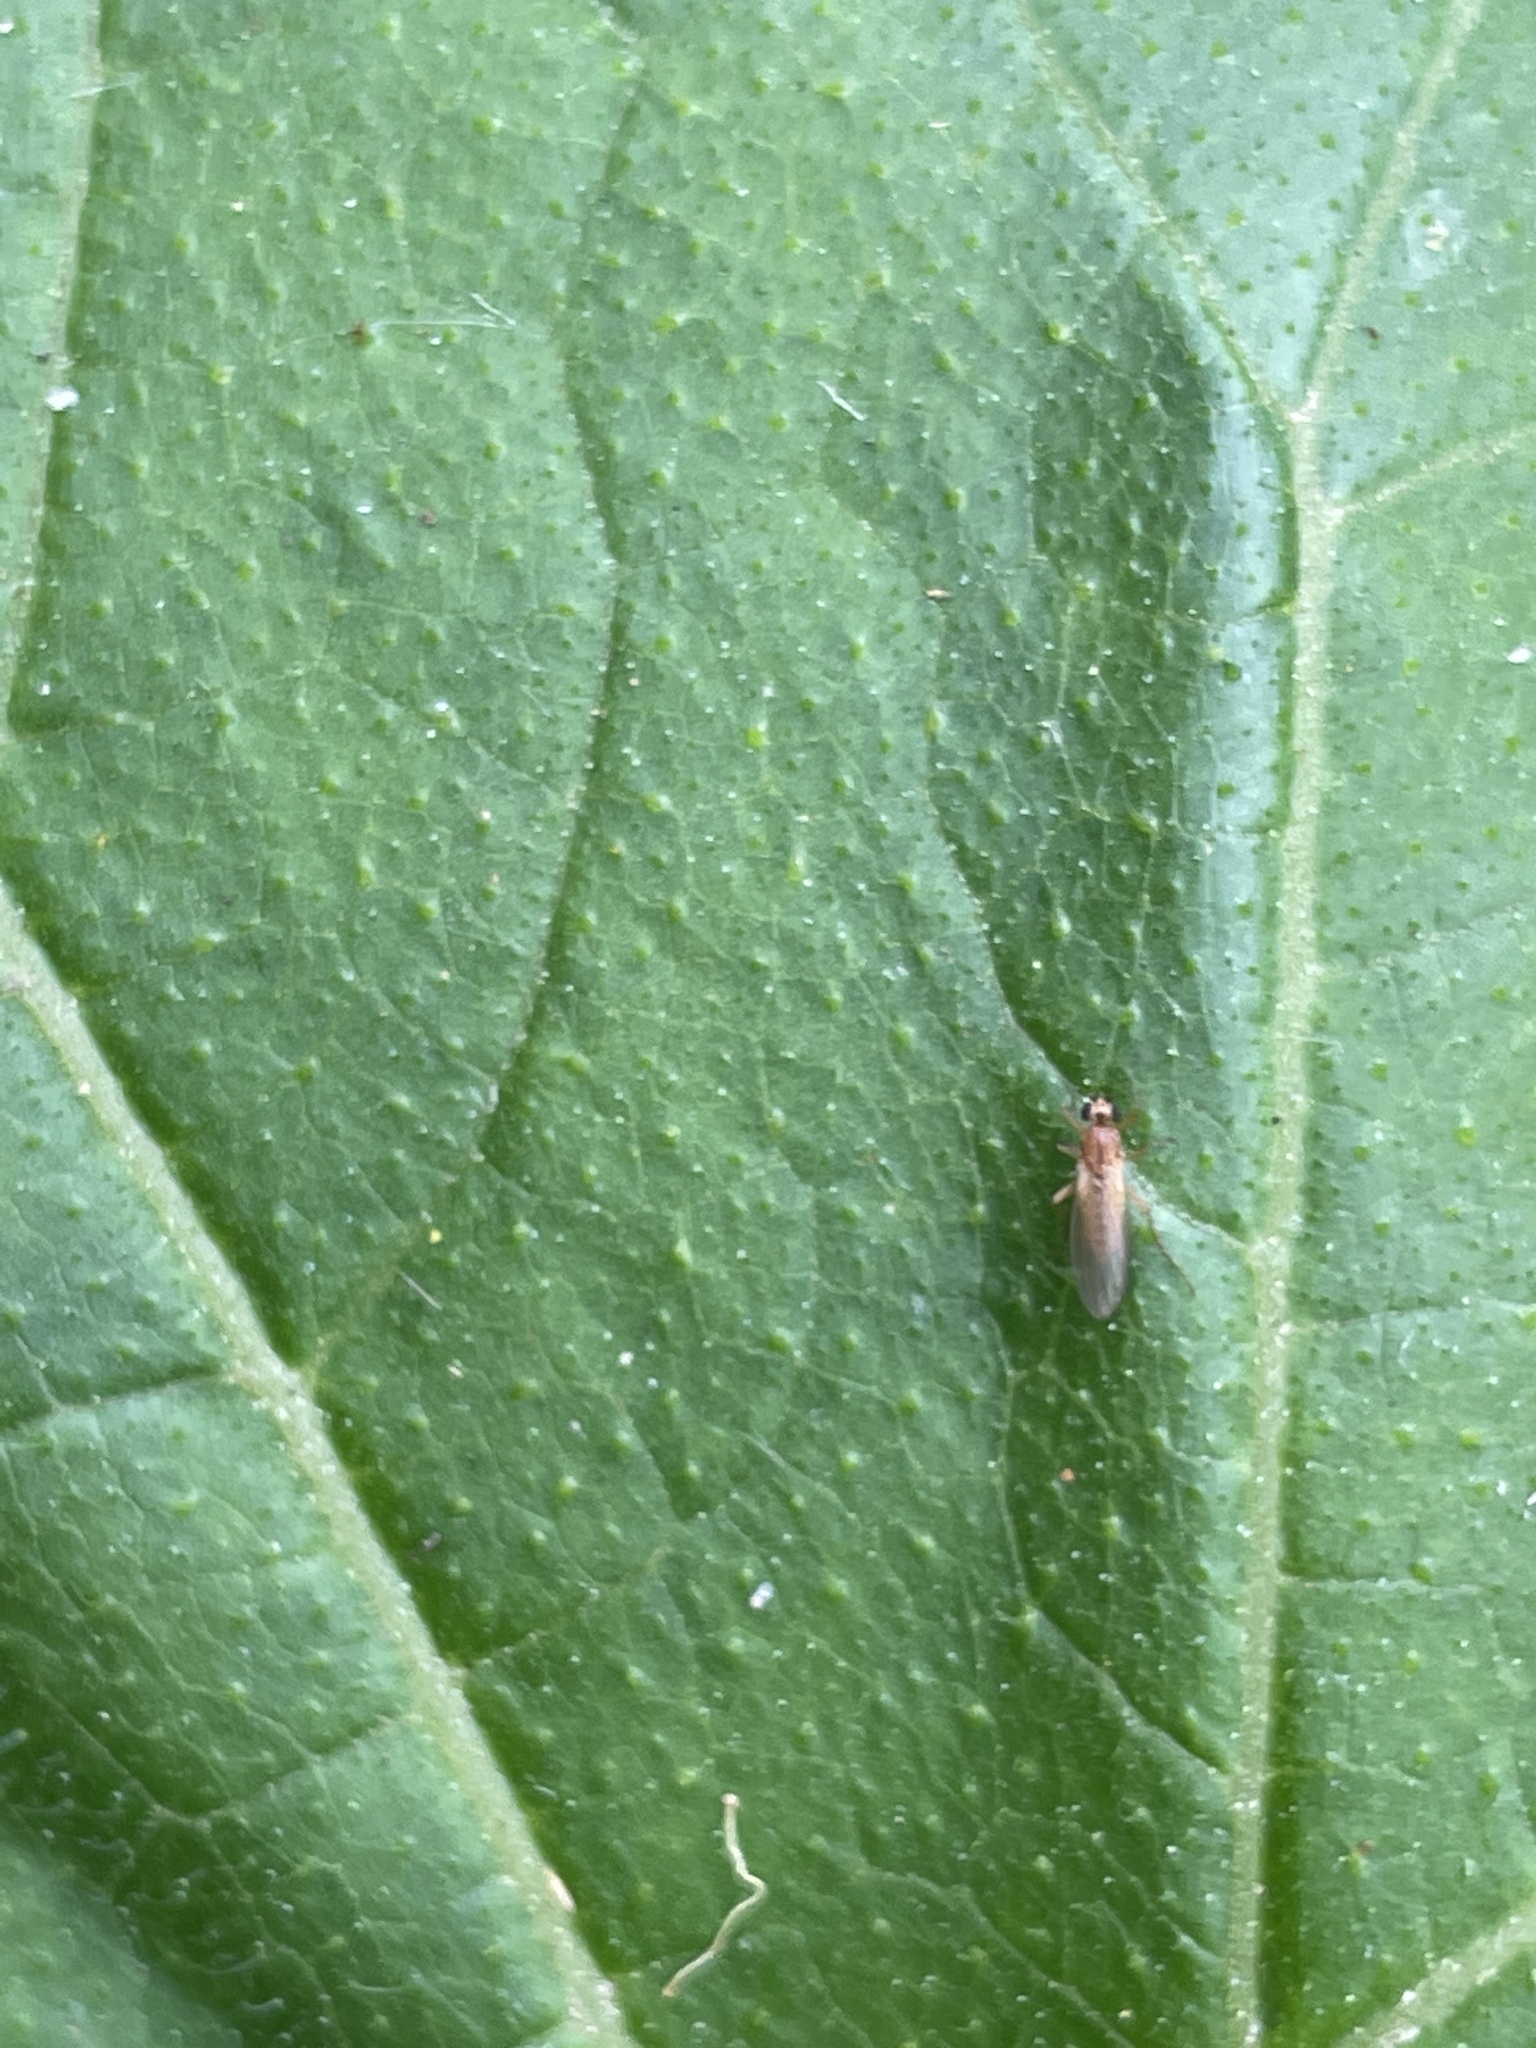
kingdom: Animalia
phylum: Arthropoda
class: Insecta
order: Diptera
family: Lonchopteridae
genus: Lonchoptera
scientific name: Lonchoptera bifurcata
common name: Spear-winged fly
